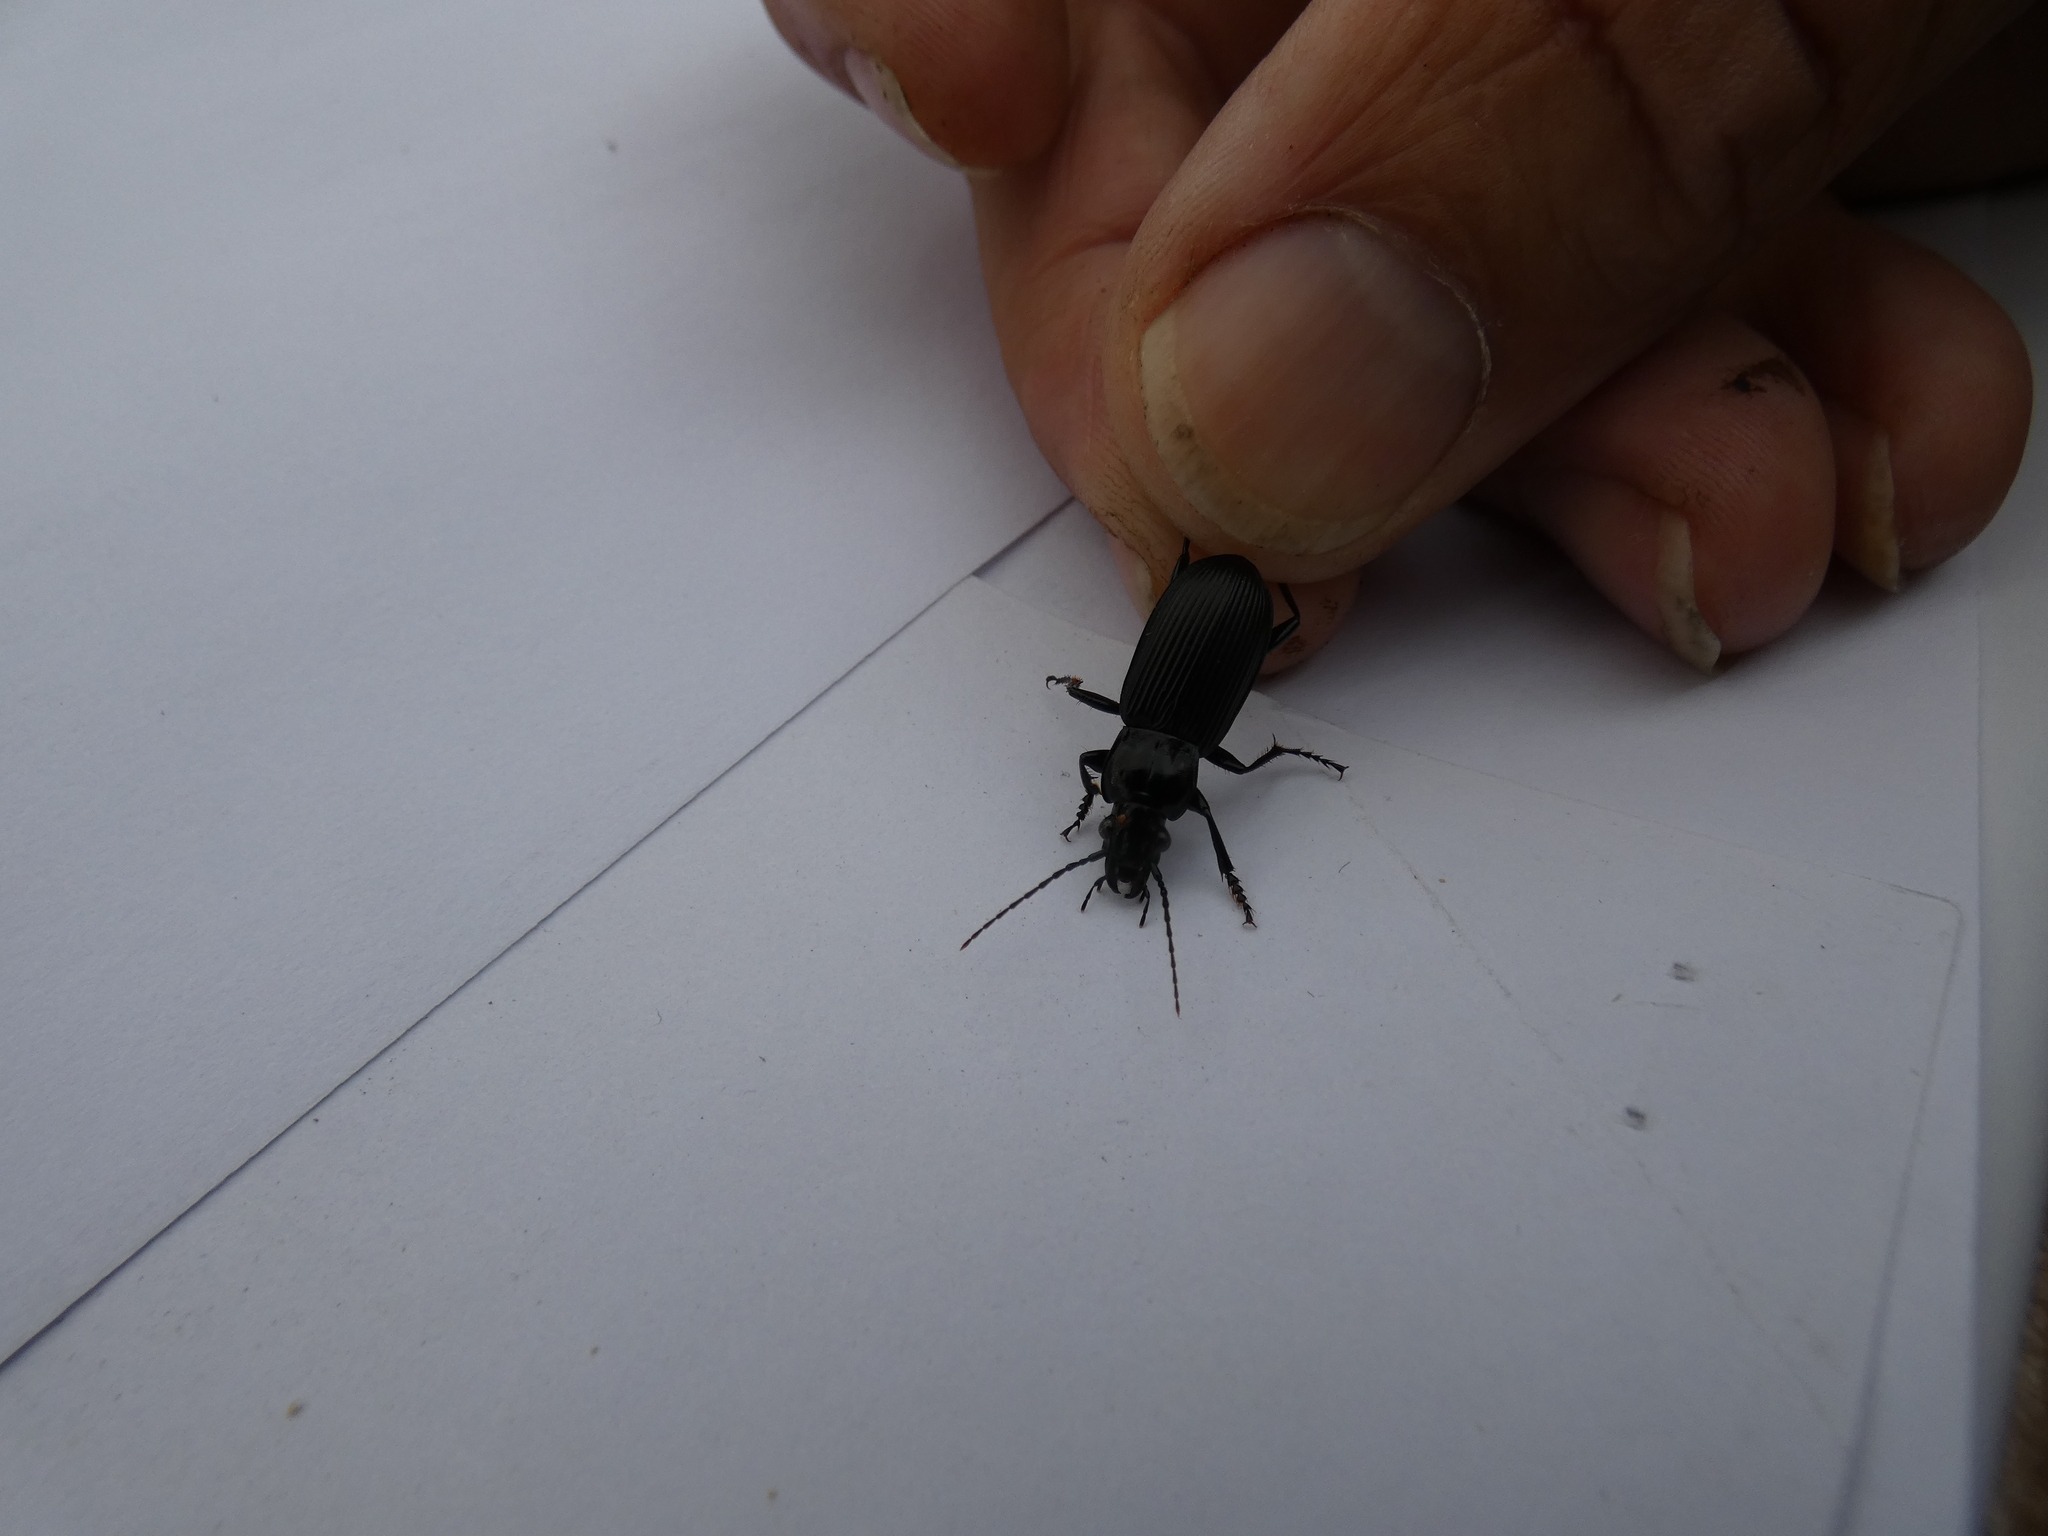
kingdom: Animalia
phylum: Arthropoda
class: Insecta
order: Coleoptera
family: Carabidae
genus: Pterostichus
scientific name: Pterostichus niger
